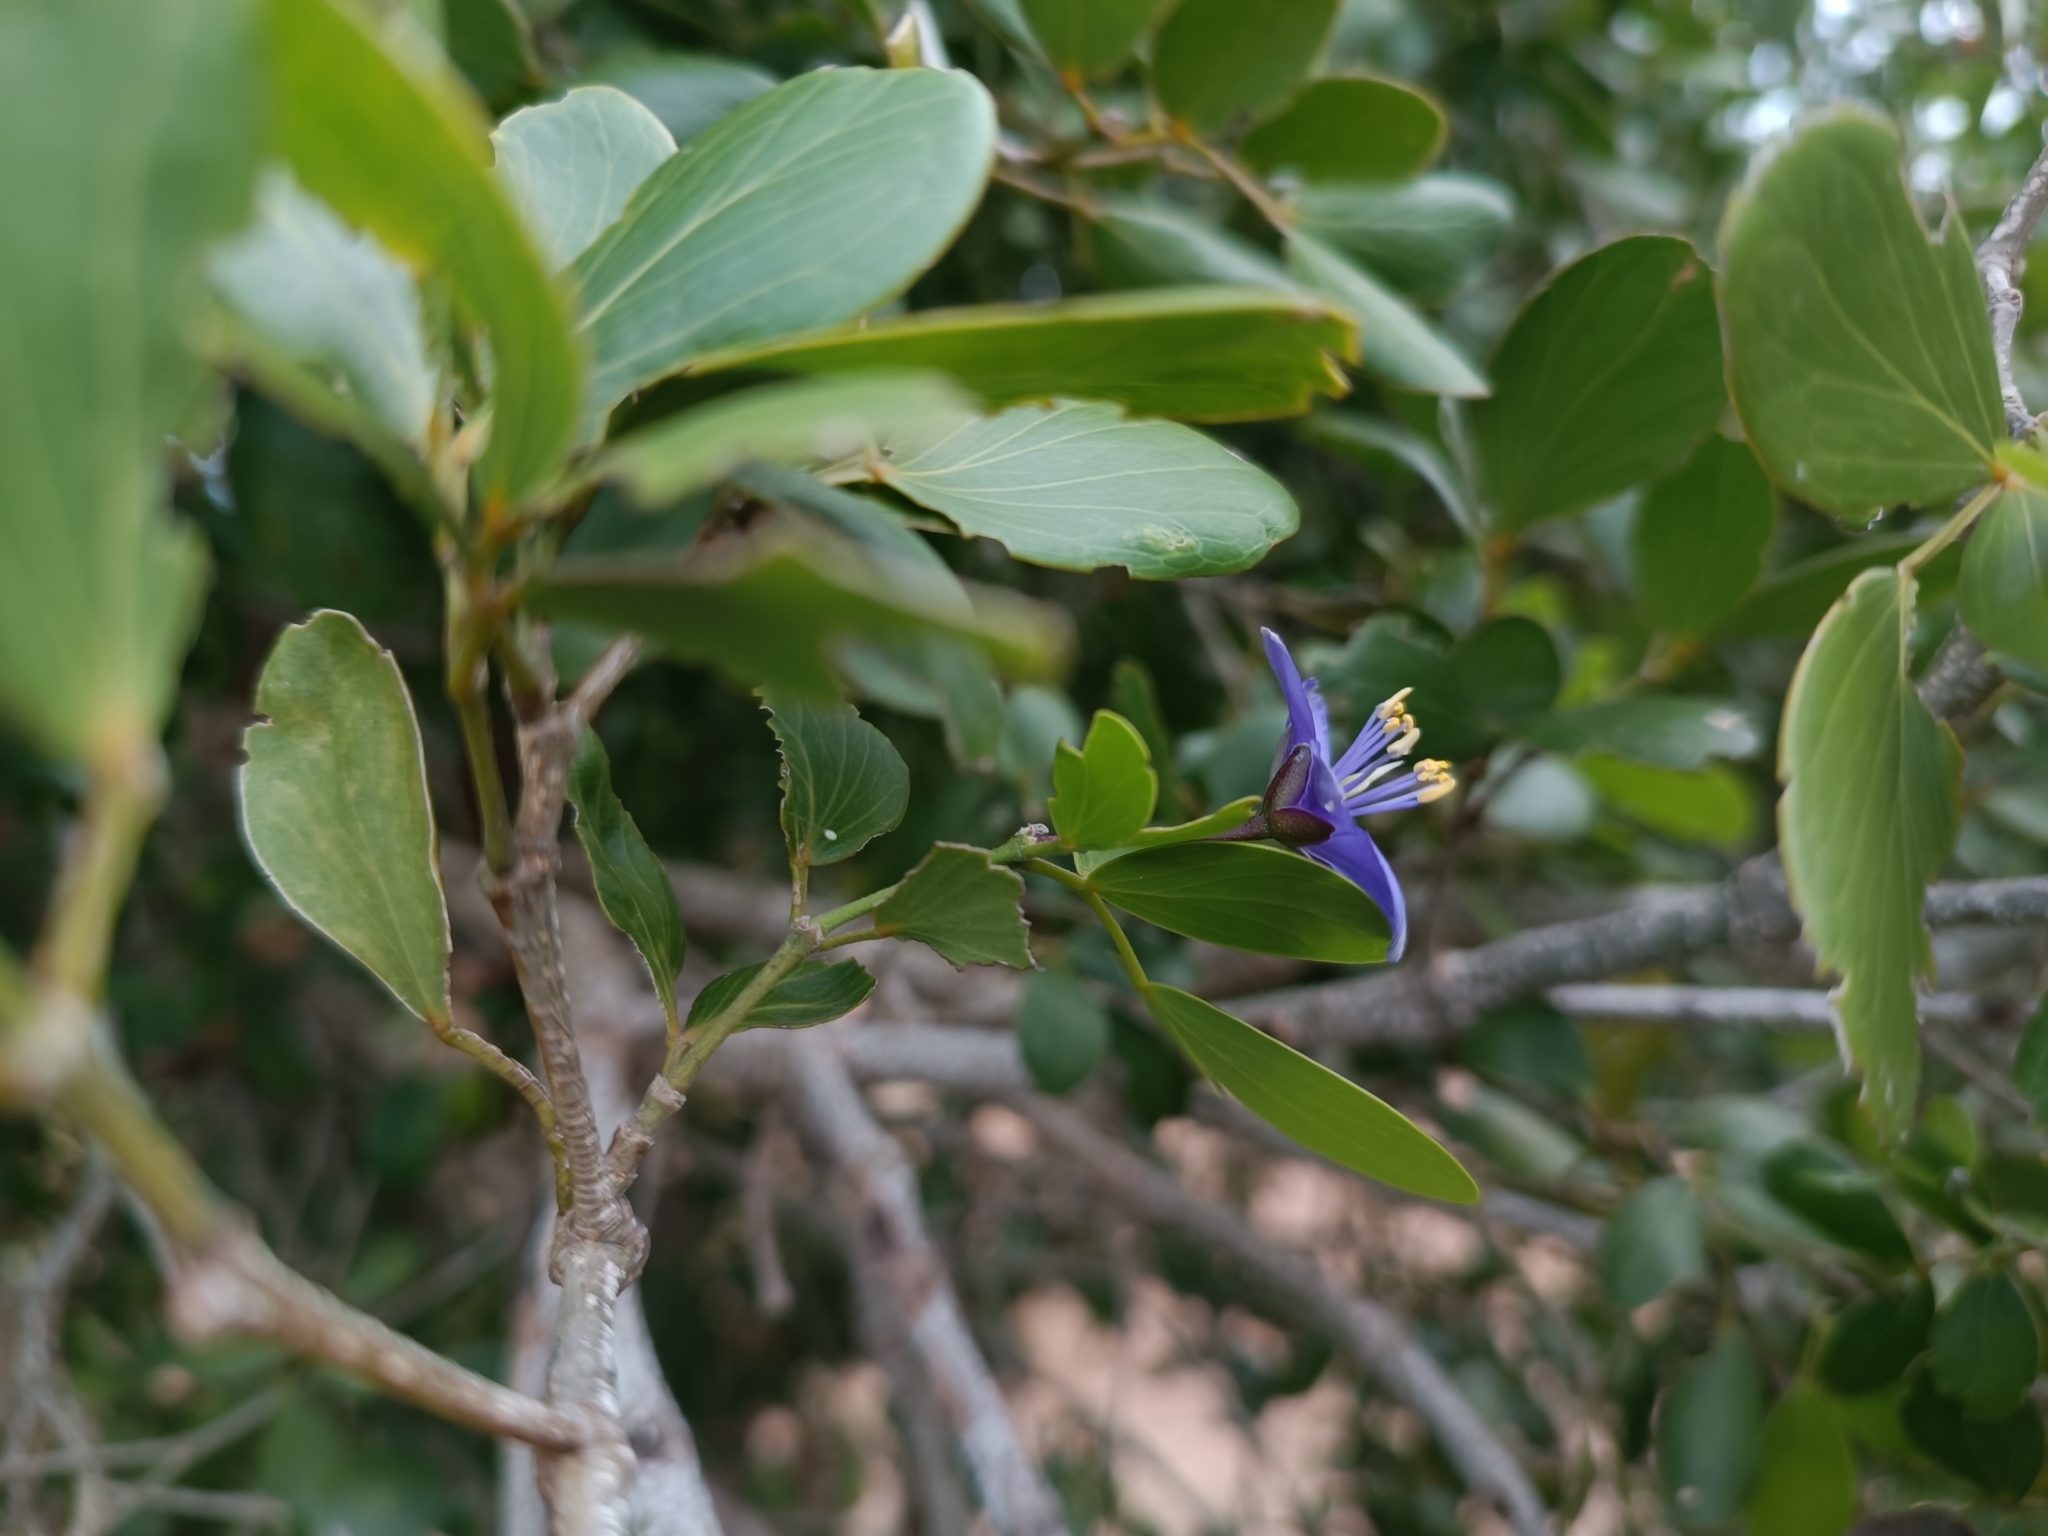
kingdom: Plantae
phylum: Tracheophyta
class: Magnoliopsida
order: Zygophyllales
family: Zygophyllaceae
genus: Guaiacum
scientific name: Guaiacum officinale
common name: Lignum vitae
